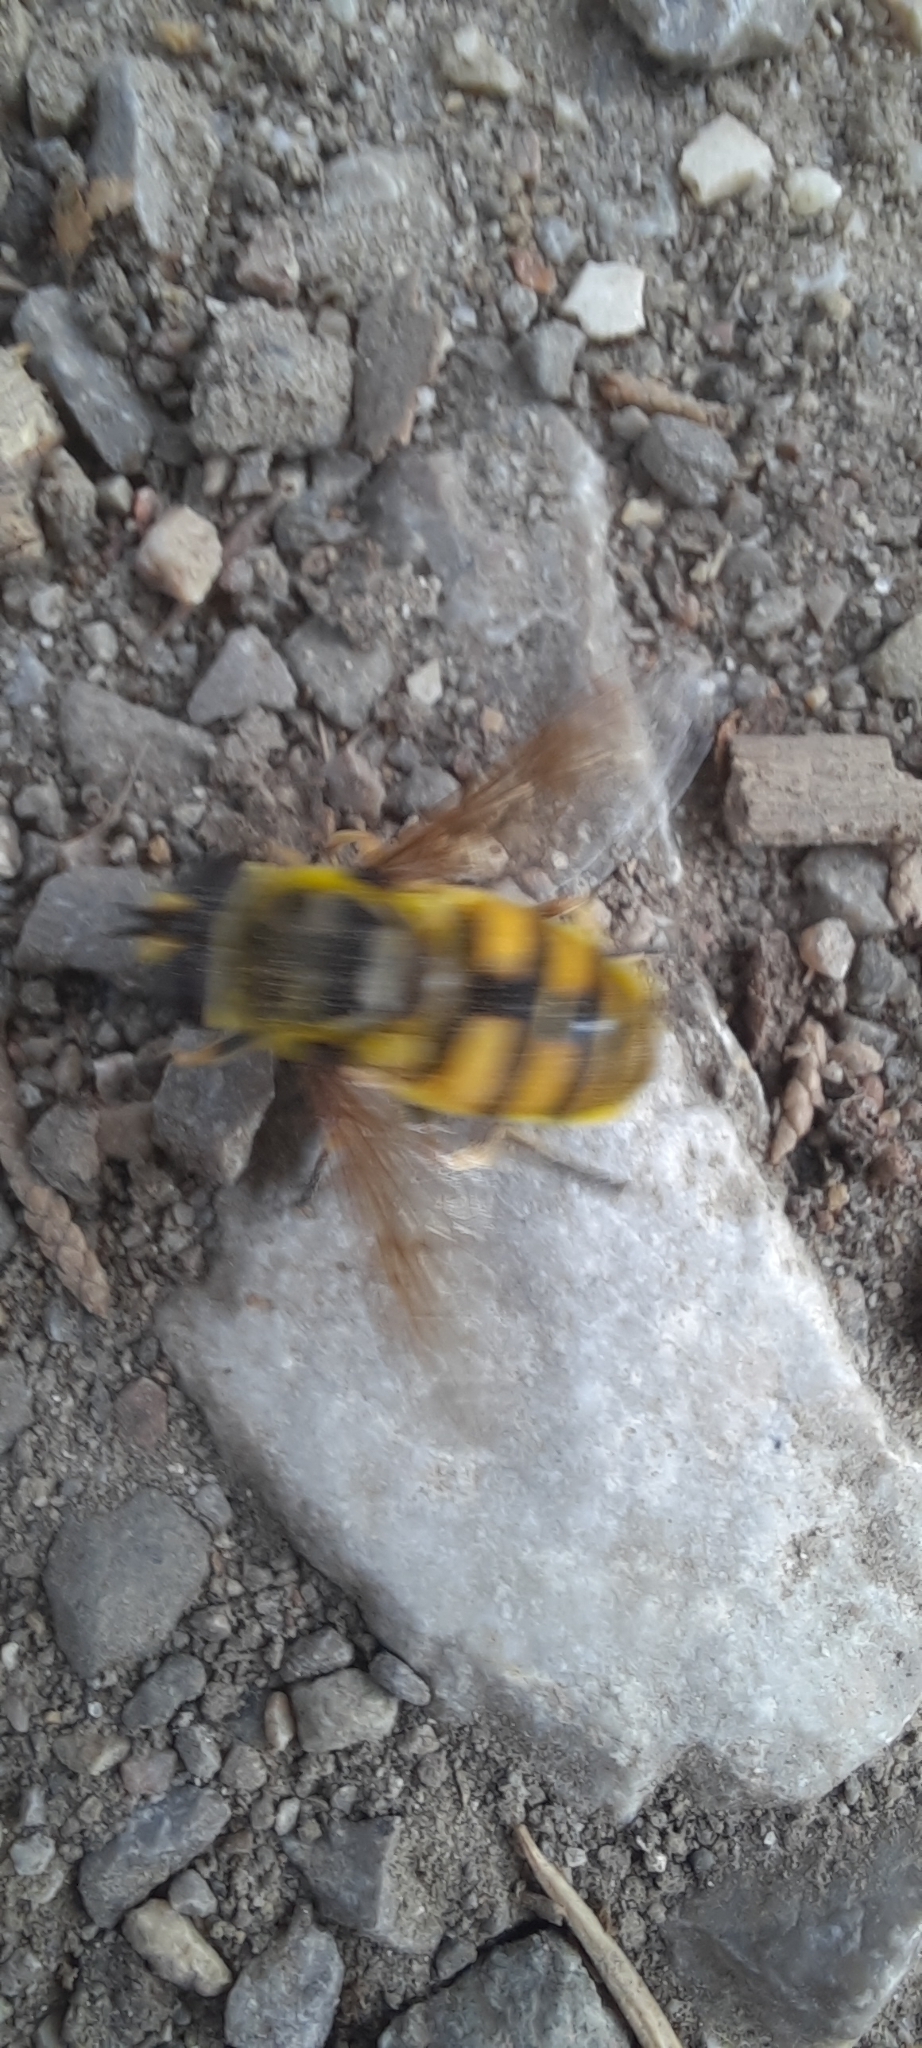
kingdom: Animalia
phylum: Arthropoda
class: Insecta
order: Diptera
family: Syrphidae
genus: Myathropa
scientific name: Myathropa florea
